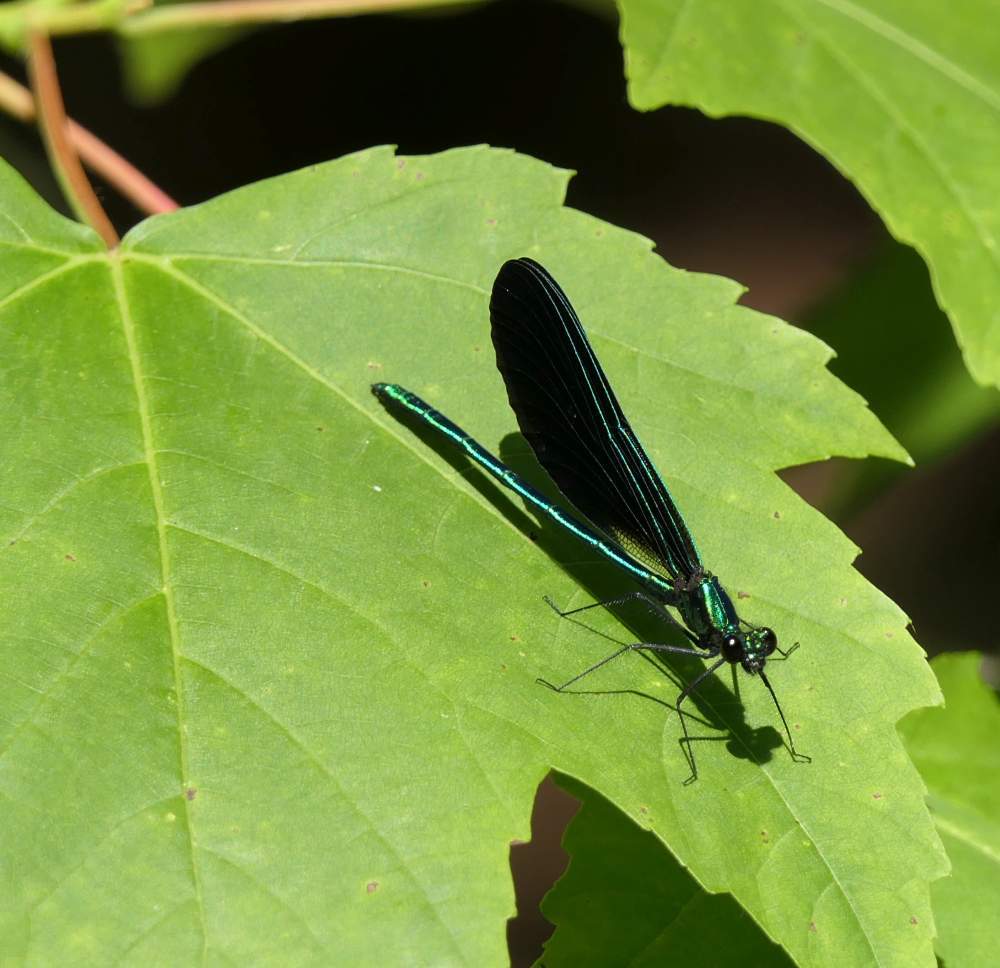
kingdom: Animalia
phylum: Arthropoda
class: Insecta
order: Odonata
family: Calopterygidae
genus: Calopteryx
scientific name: Calopteryx maculata
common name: Ebony jewelwing
